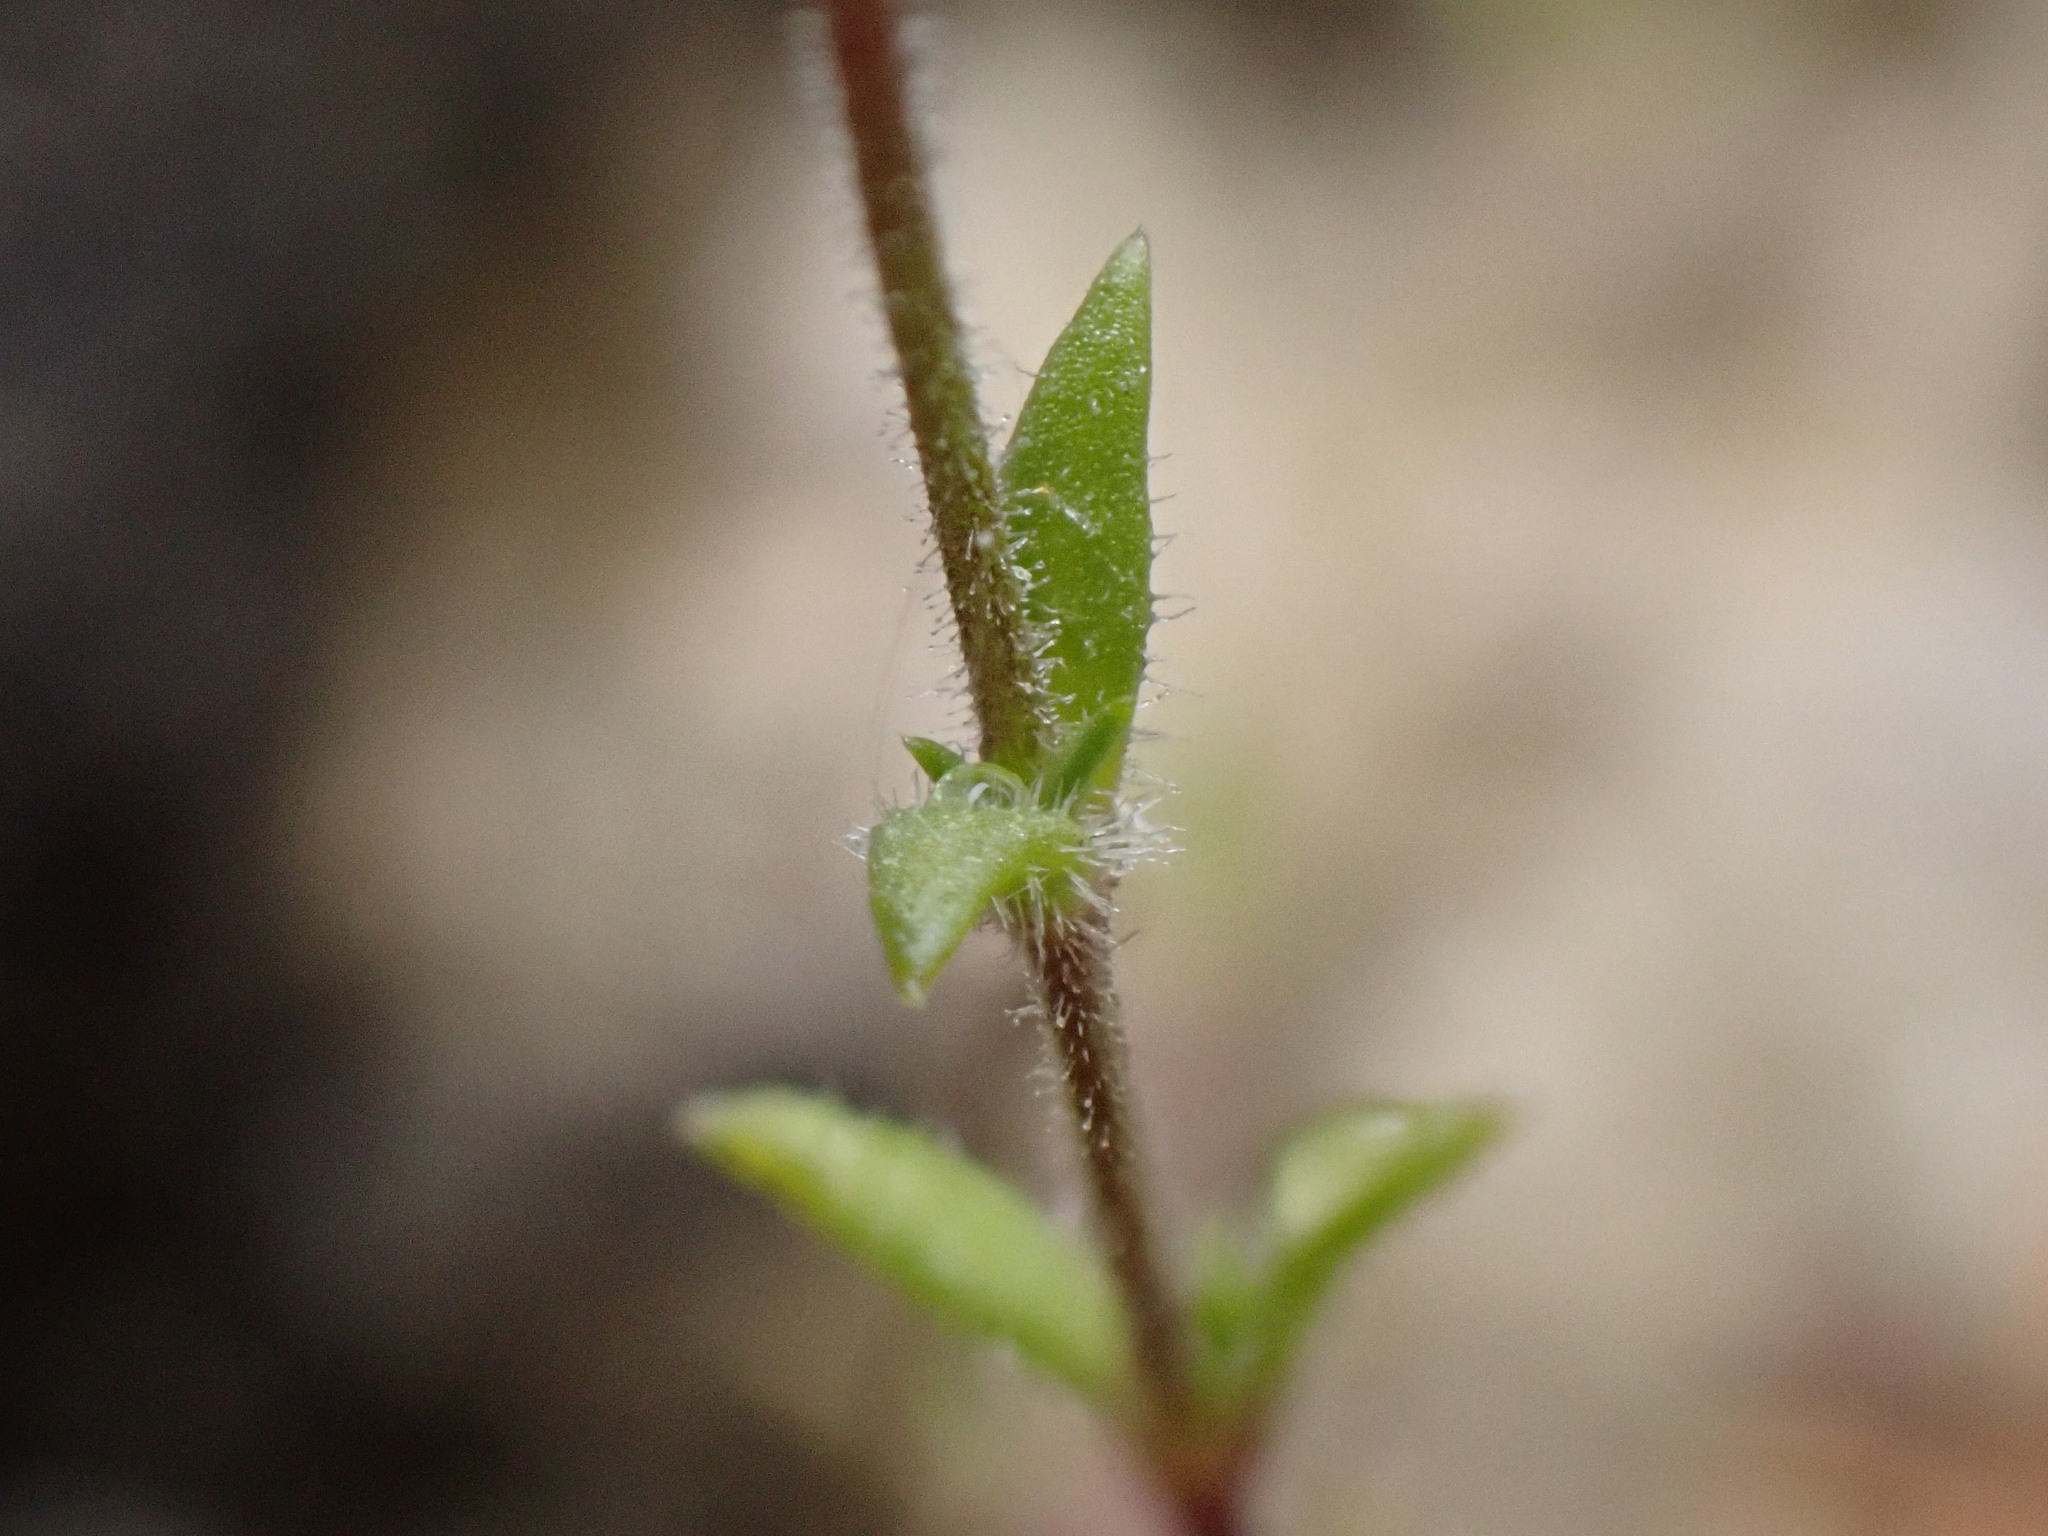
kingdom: Plantae
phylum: Tracheophyta
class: Magnoliopsida
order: Caryophyllales
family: Caryophyllaceae
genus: Arenaria
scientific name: Arenaria hispida
